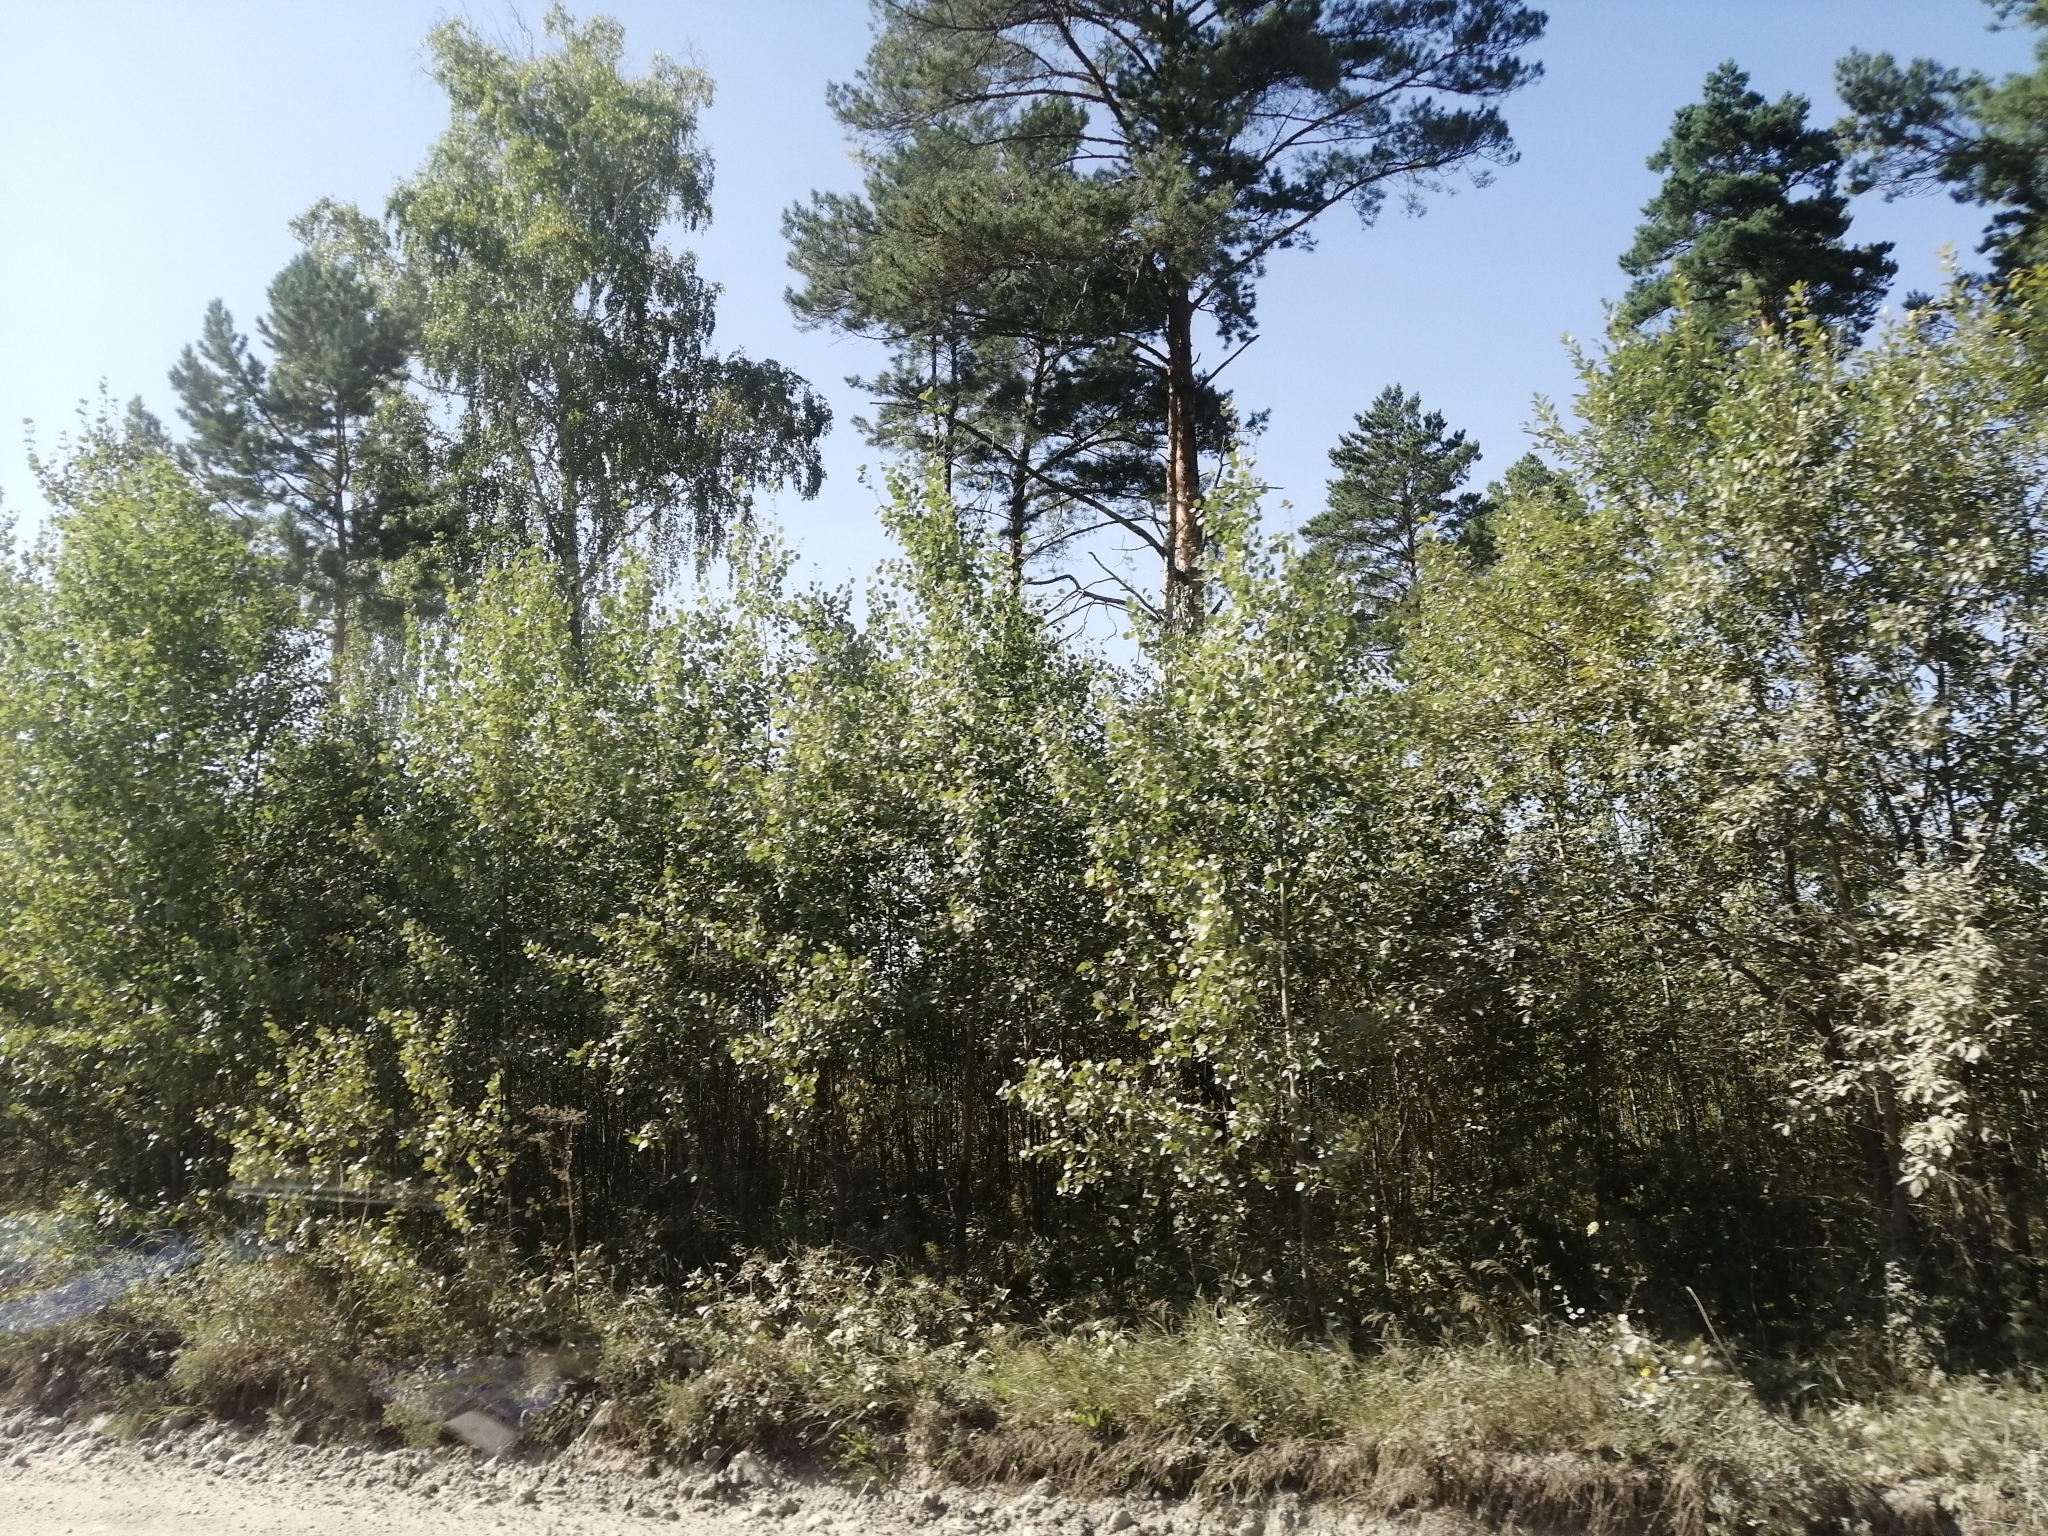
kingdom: Plantae
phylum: Tracheophyta
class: Pinopsida
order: Pinales
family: Pinaceae
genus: Pinus
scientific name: Pinus sylvestris
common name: Scots pine
